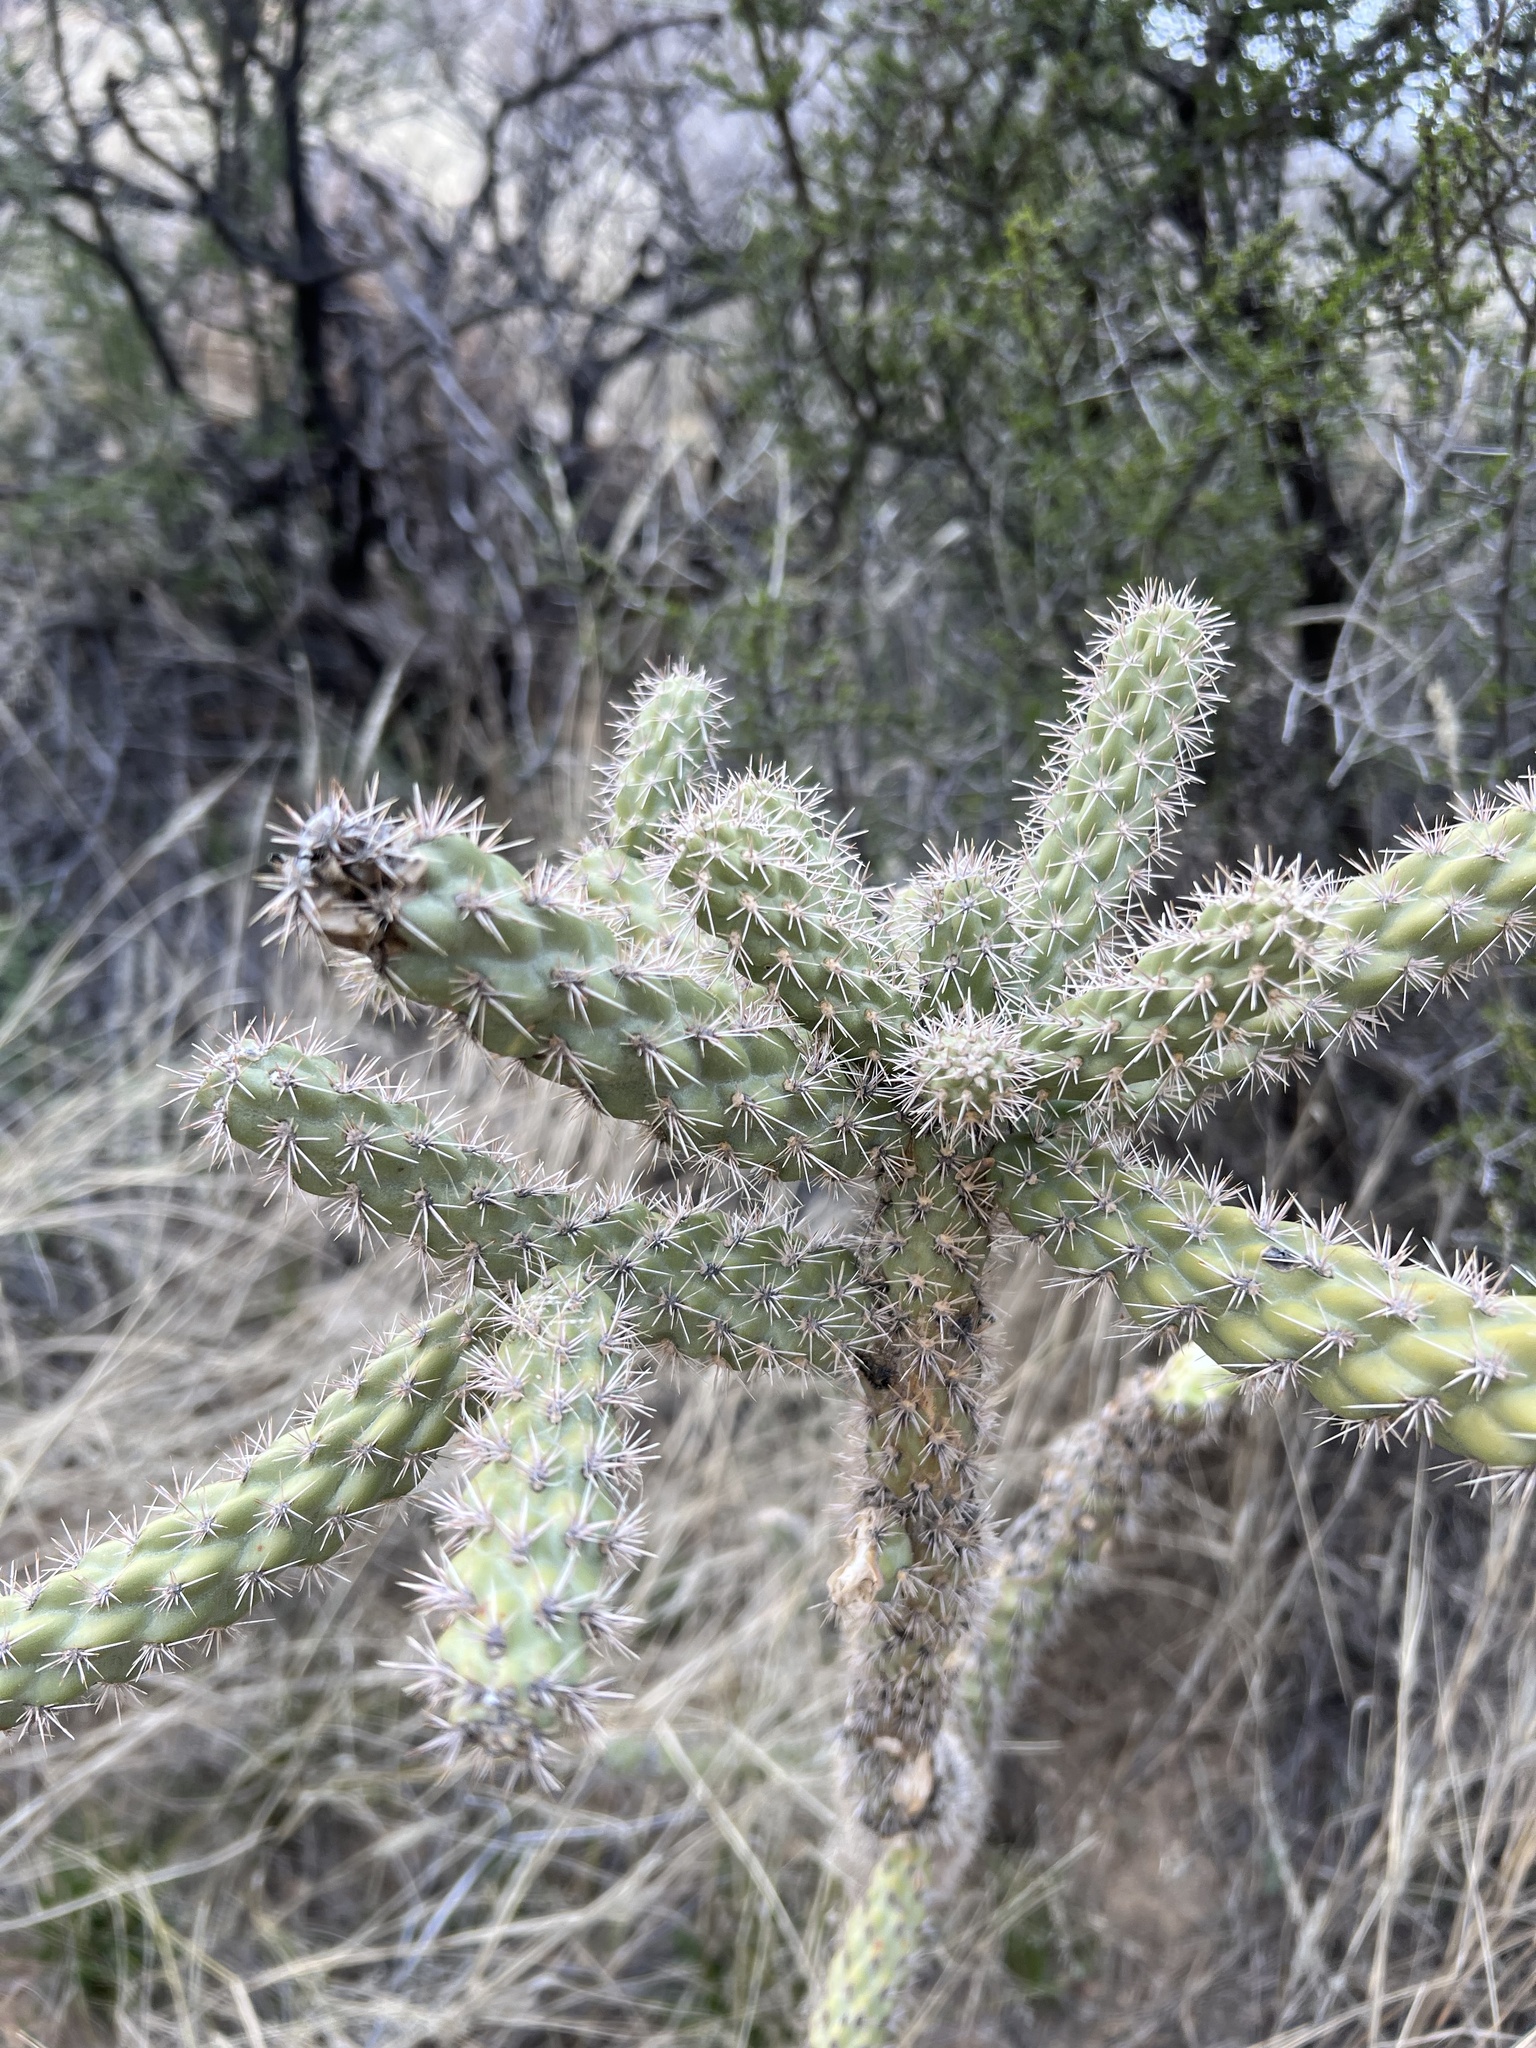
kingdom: Plantae
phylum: Tracheophyta
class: Magnoliopsida
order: Caryophyllales
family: Cactaceae
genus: Cylindropuntia
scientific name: Cylindropuntia imbricata
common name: Candelabrum cactus
